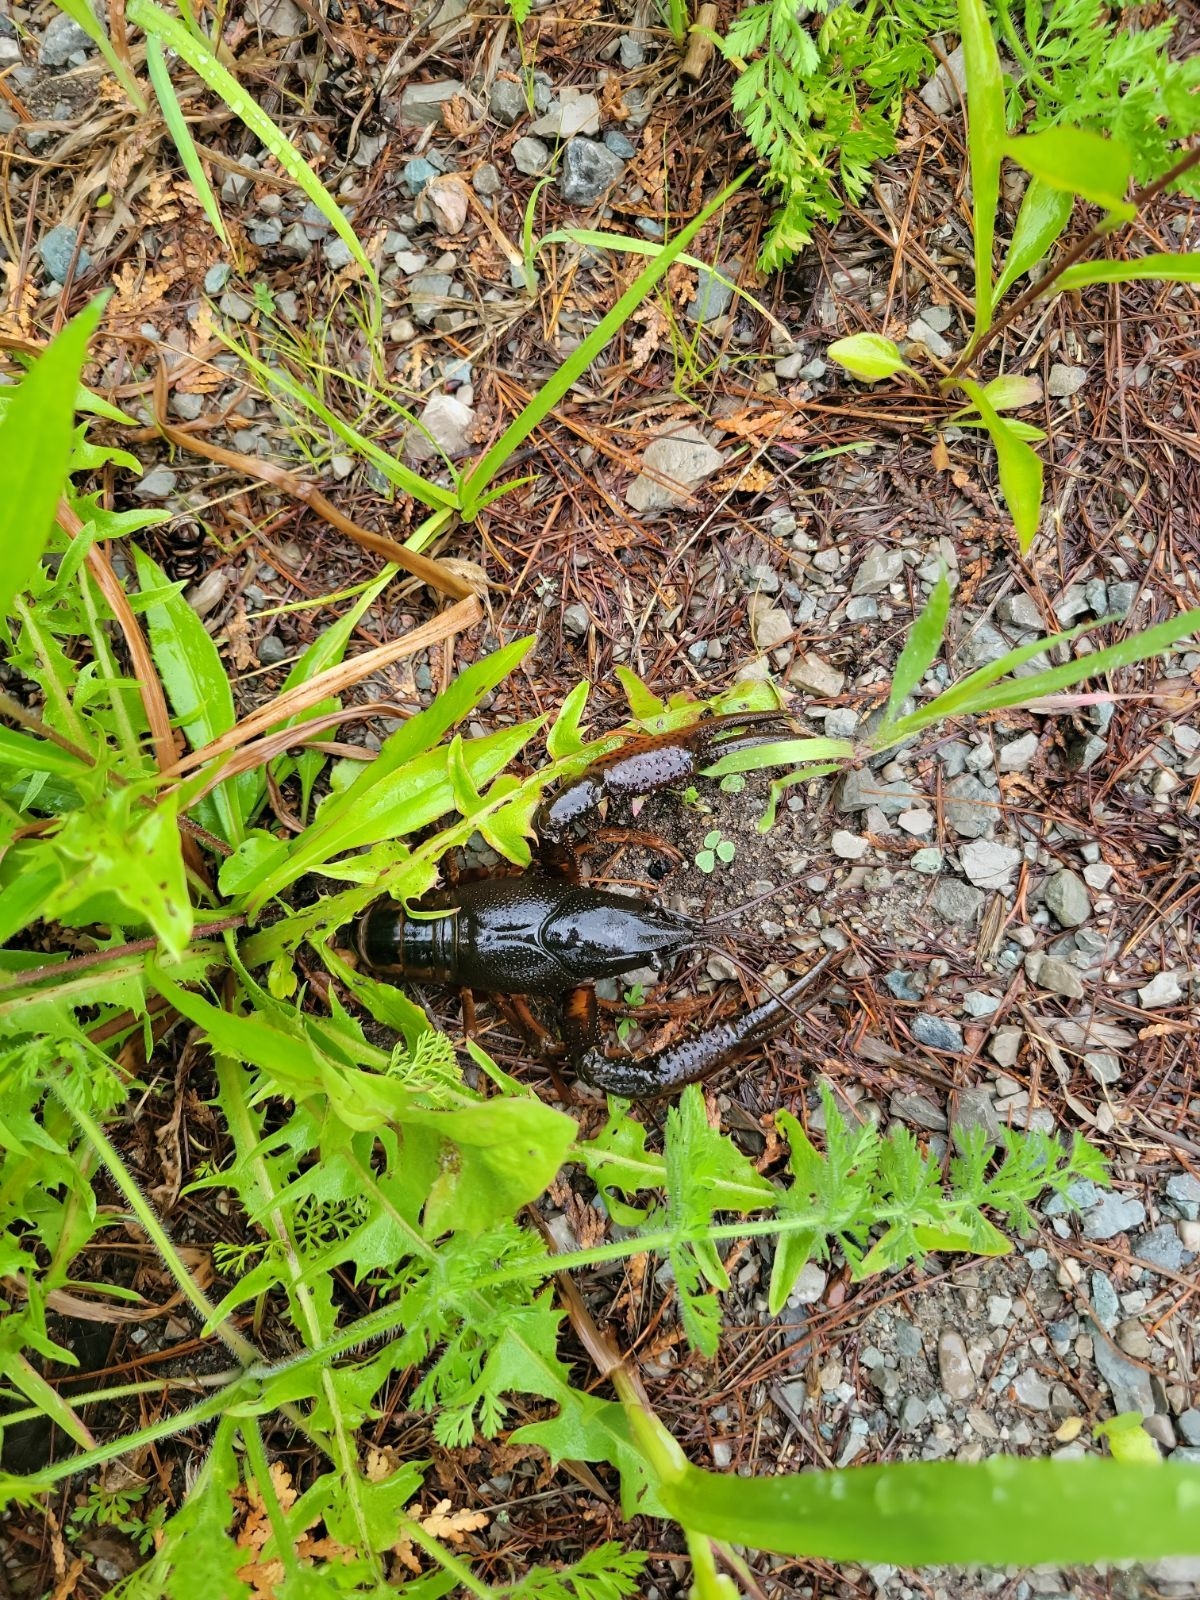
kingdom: Animalia
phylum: Arthropoda
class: Malacostraca
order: Decapoda
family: Cambaridae
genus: Procambarus
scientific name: Procambarus acutus
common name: White river crayfish
